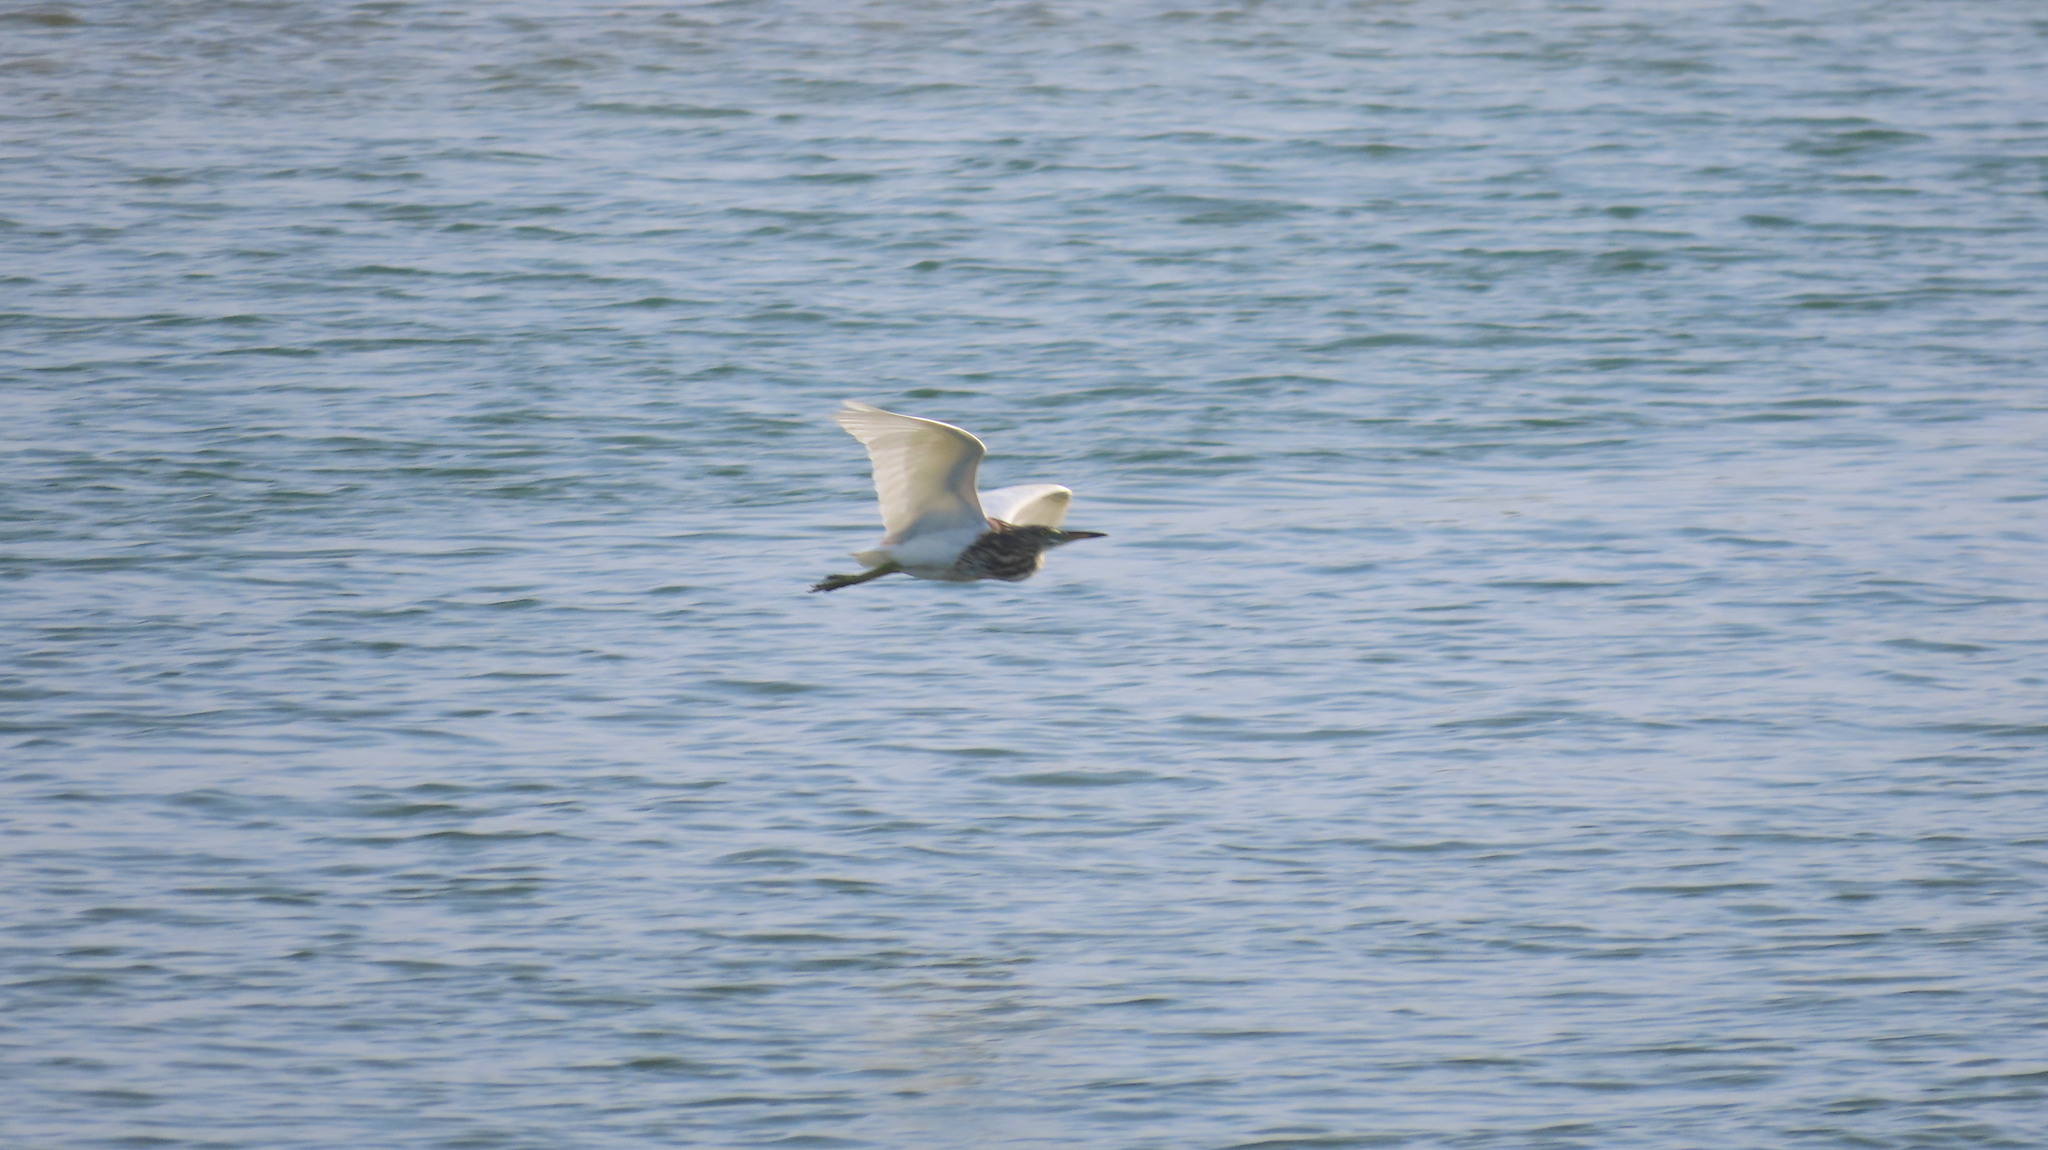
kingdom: Animalia
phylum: Chordata
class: Aves
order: Pelecaniformes
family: Ardeidae
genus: Ardeola
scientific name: Ardeola grayii
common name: Indian pond heron
